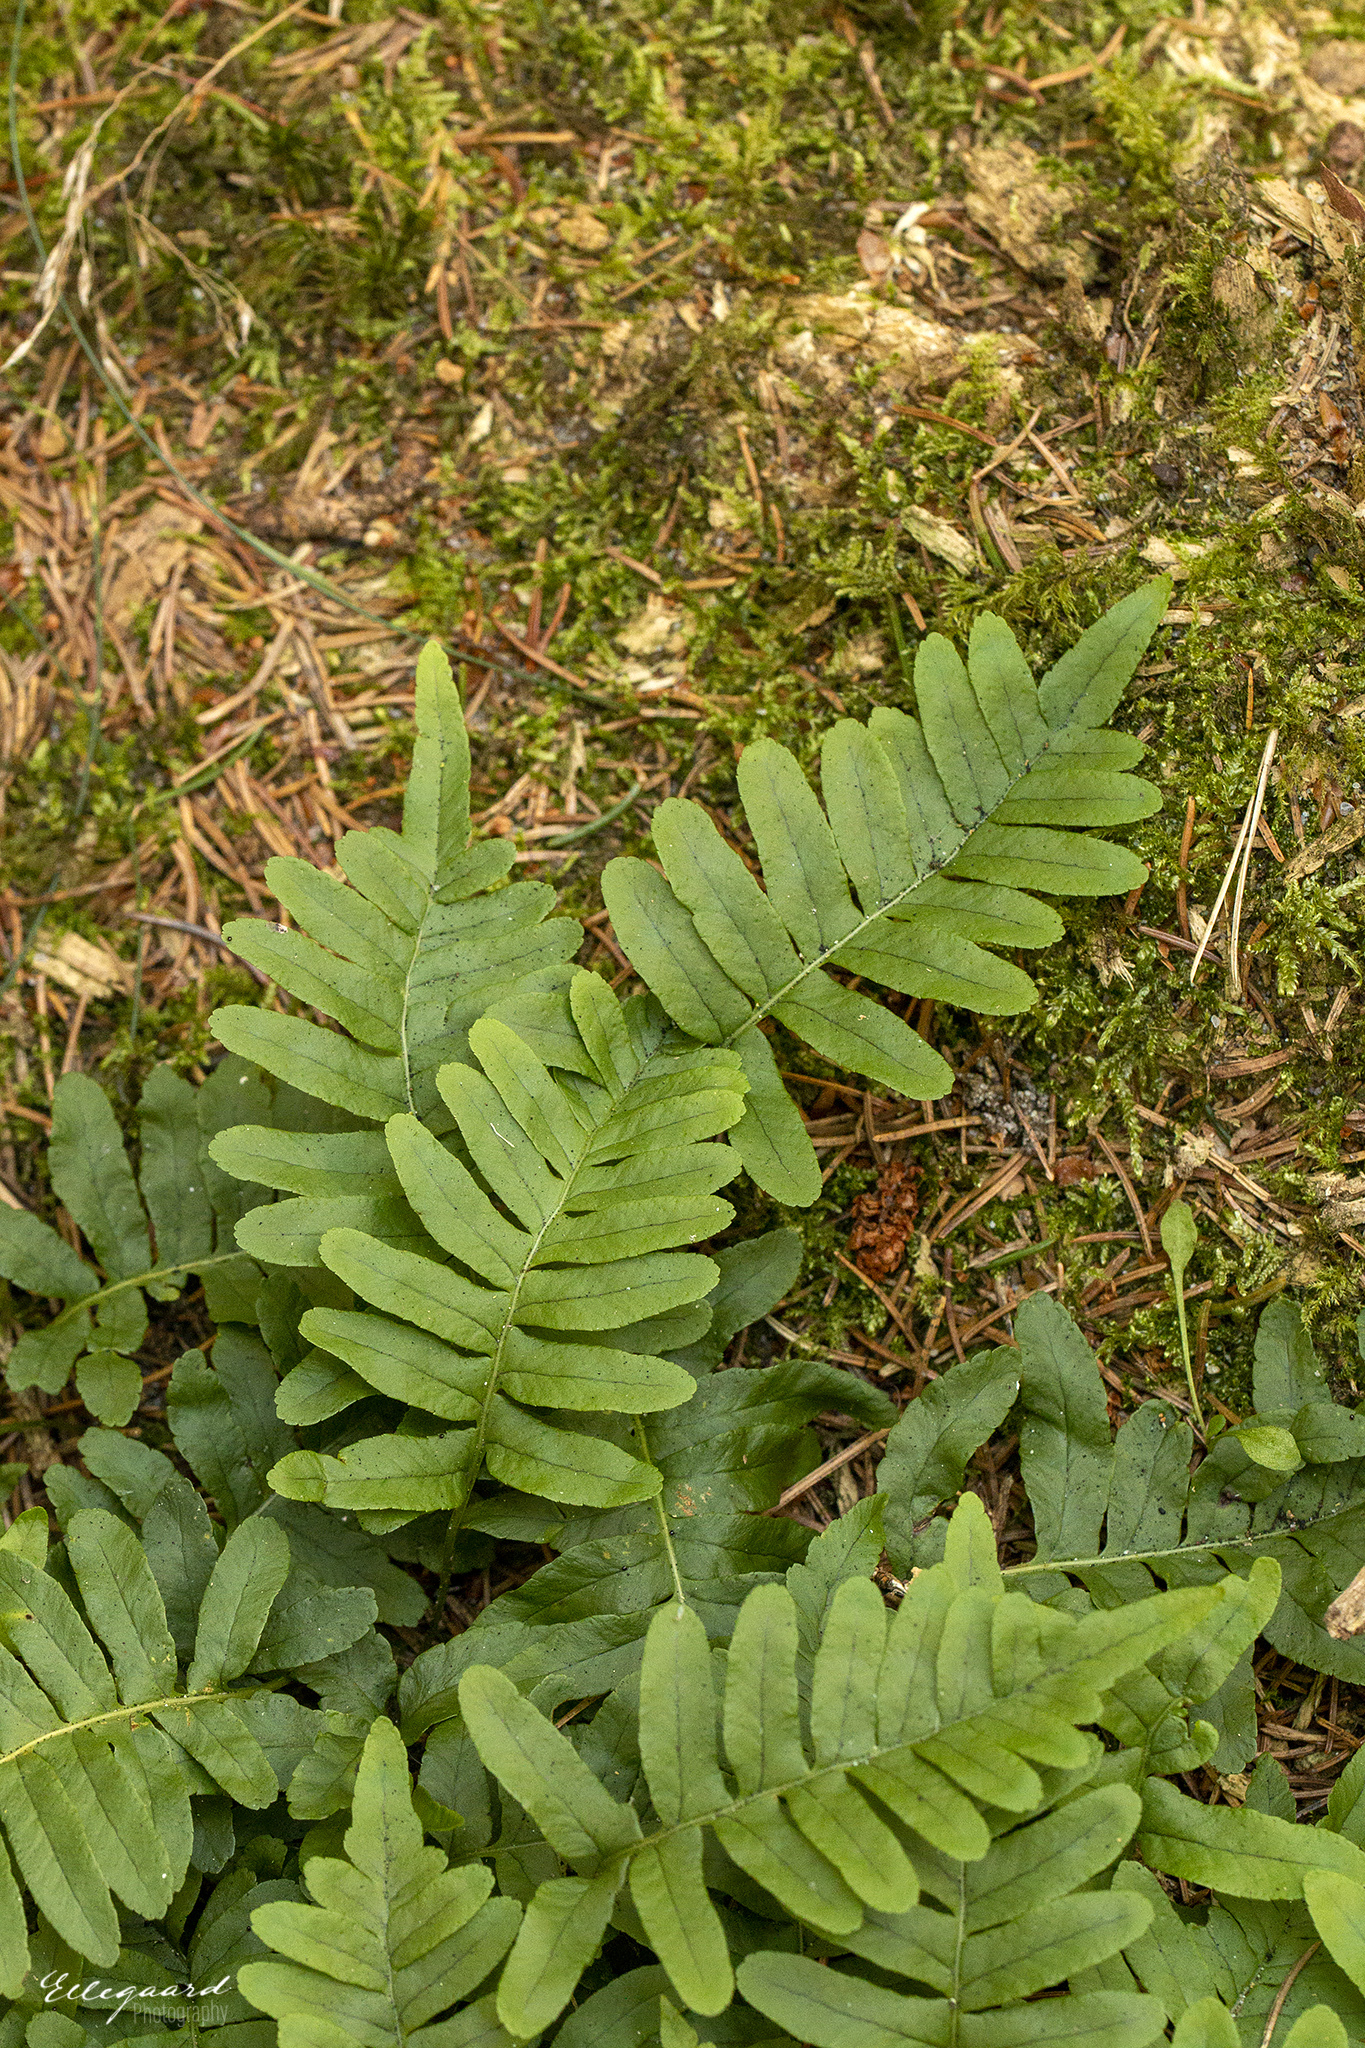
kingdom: Plantae
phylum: Tracheophyta
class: Polypodiopsida
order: Polypodiales
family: Polypodiaceae
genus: Polypodium
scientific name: Polypodium vulgare
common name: Common polypody
